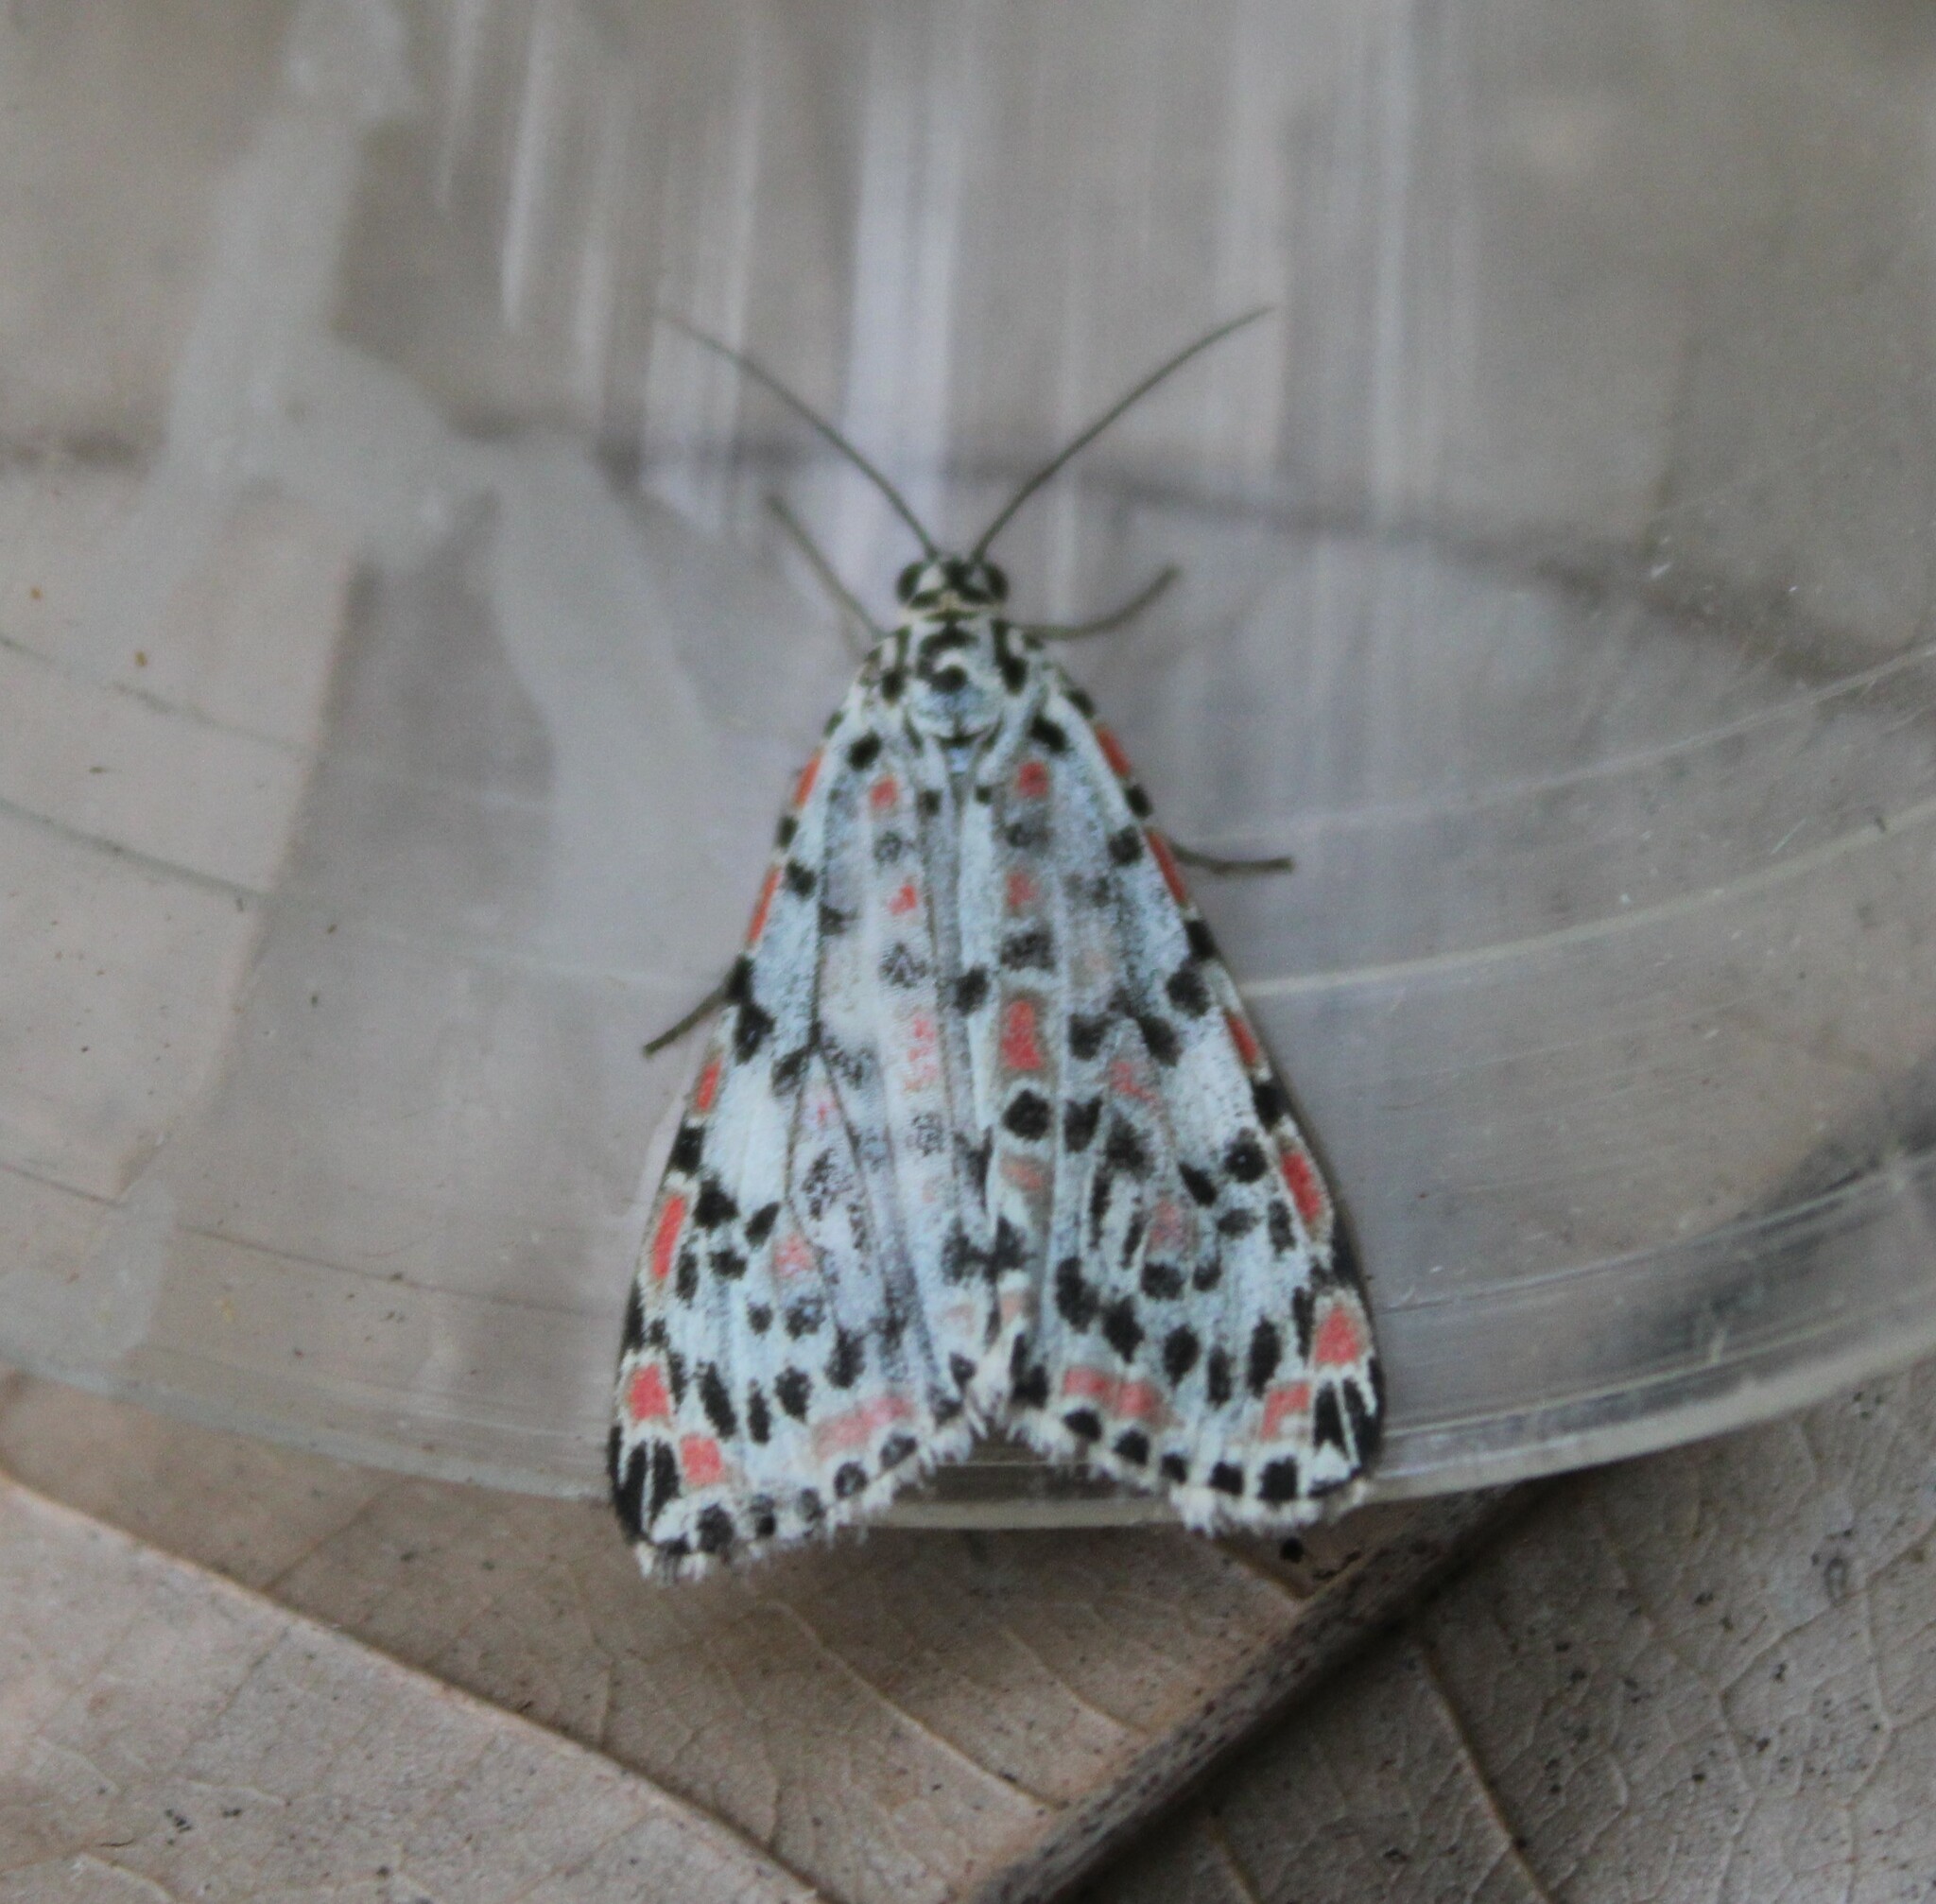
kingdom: Animalia
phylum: Arthropoda
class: Insecta
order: Lepidoptera
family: Erebidae
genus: Utetheisa
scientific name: Utetheisa lotrix
